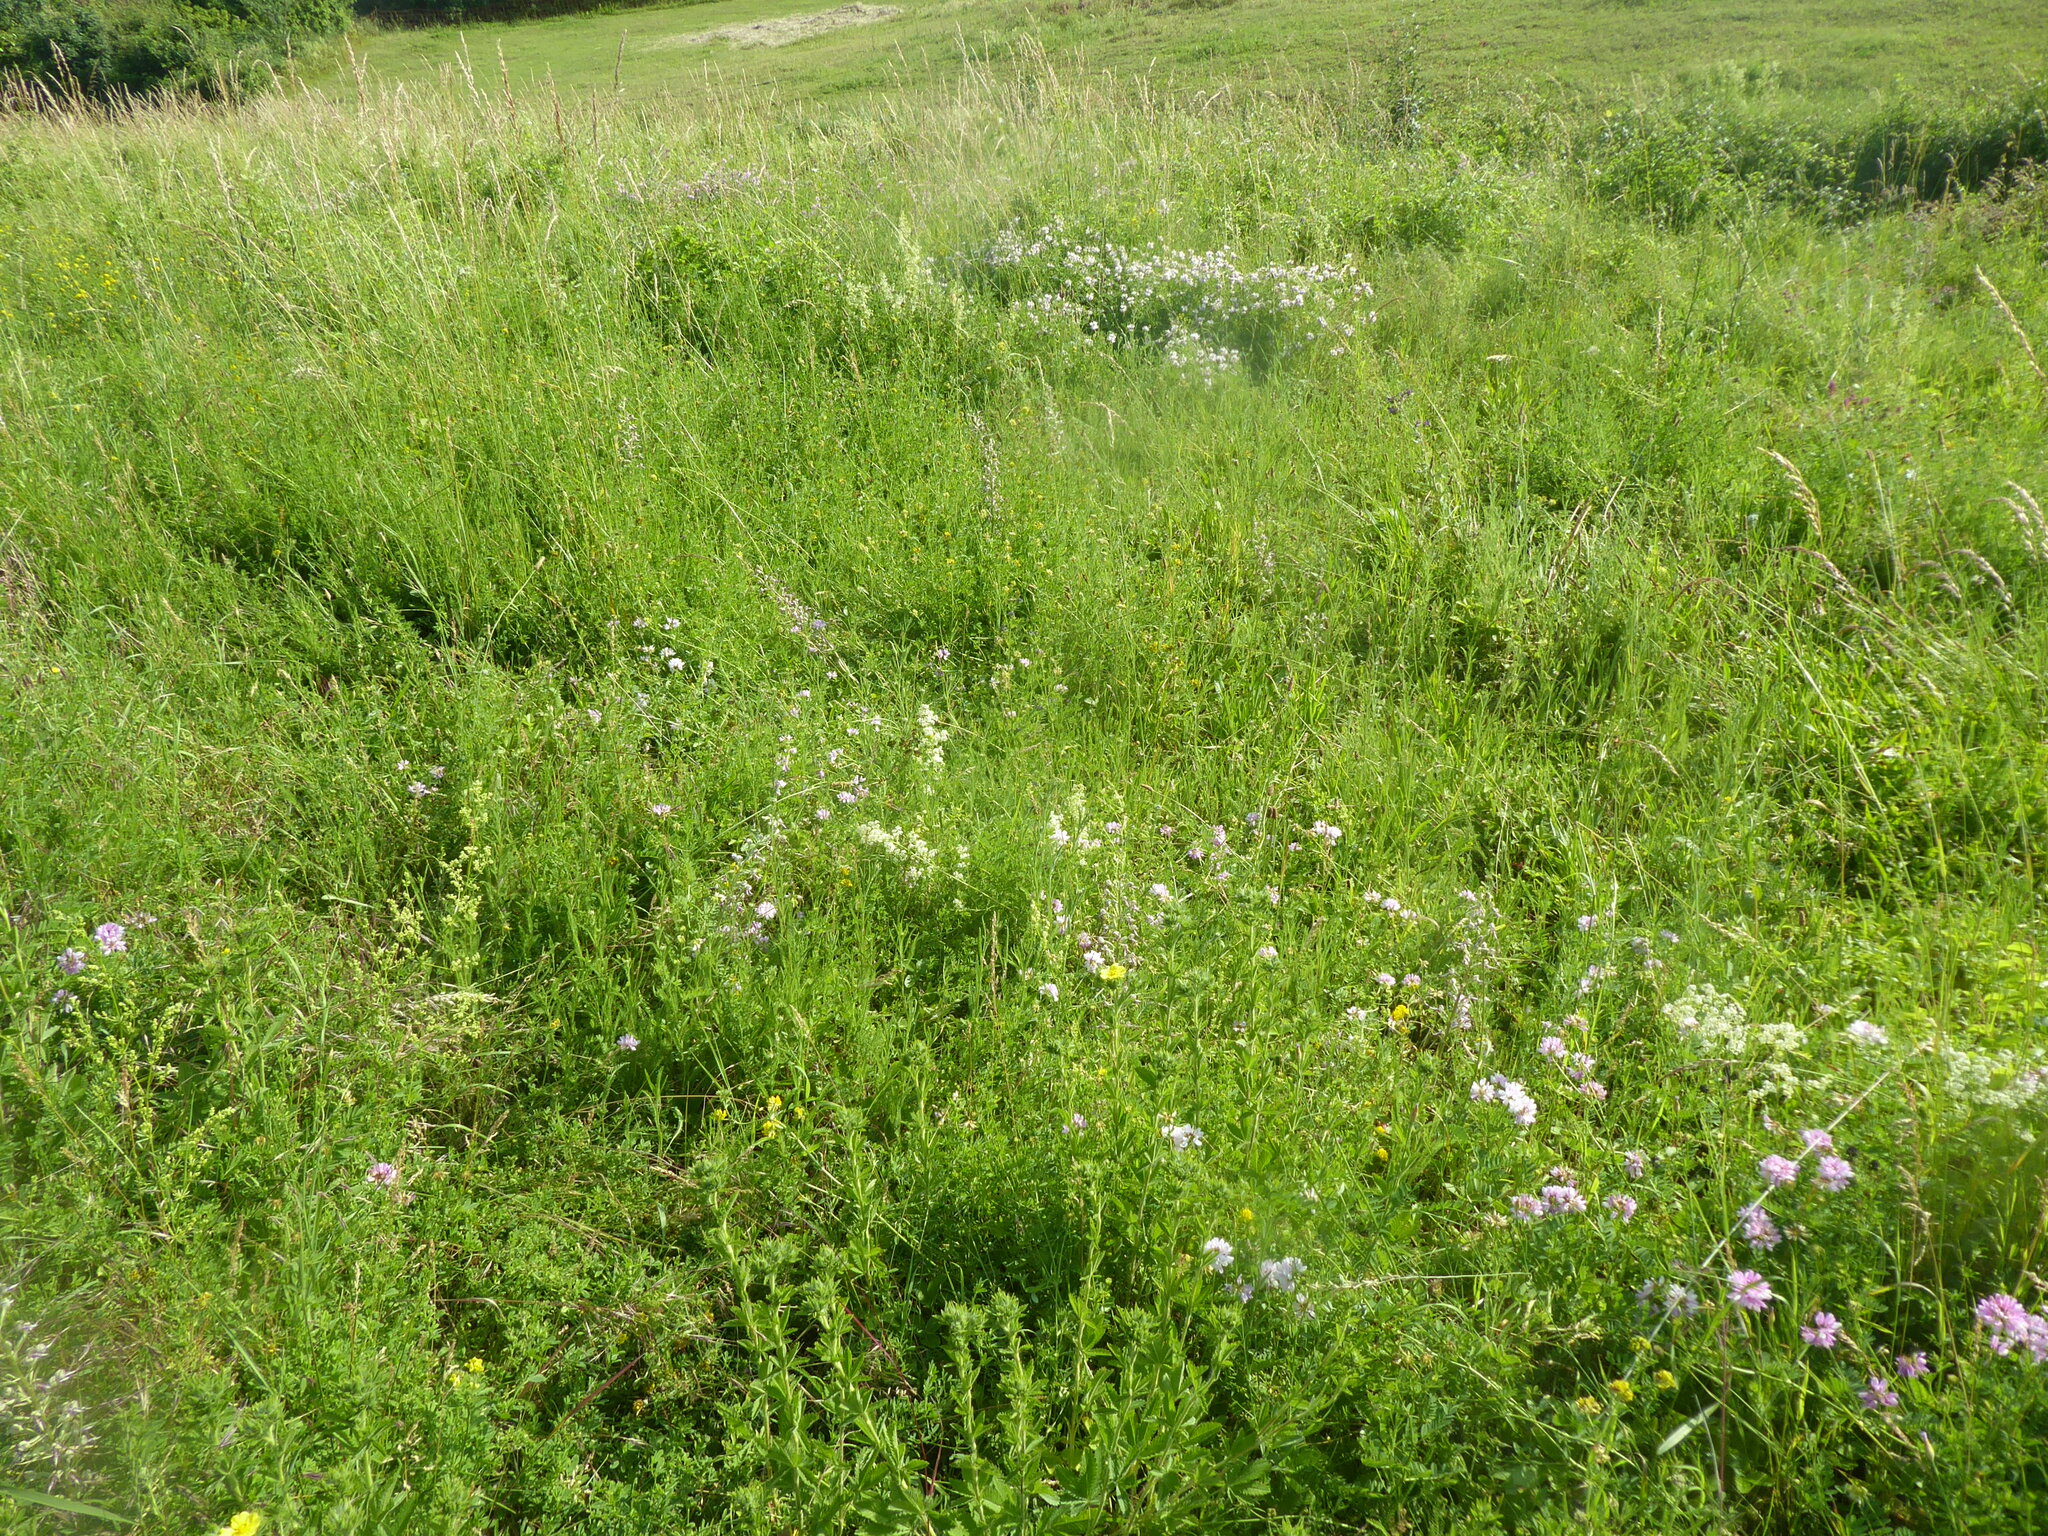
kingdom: Plantae
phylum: Tracheophyta
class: Liliopsida
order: Asparagales
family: Orchidaceae
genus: Himantoglossum
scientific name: Himantoglossum adriaticum
